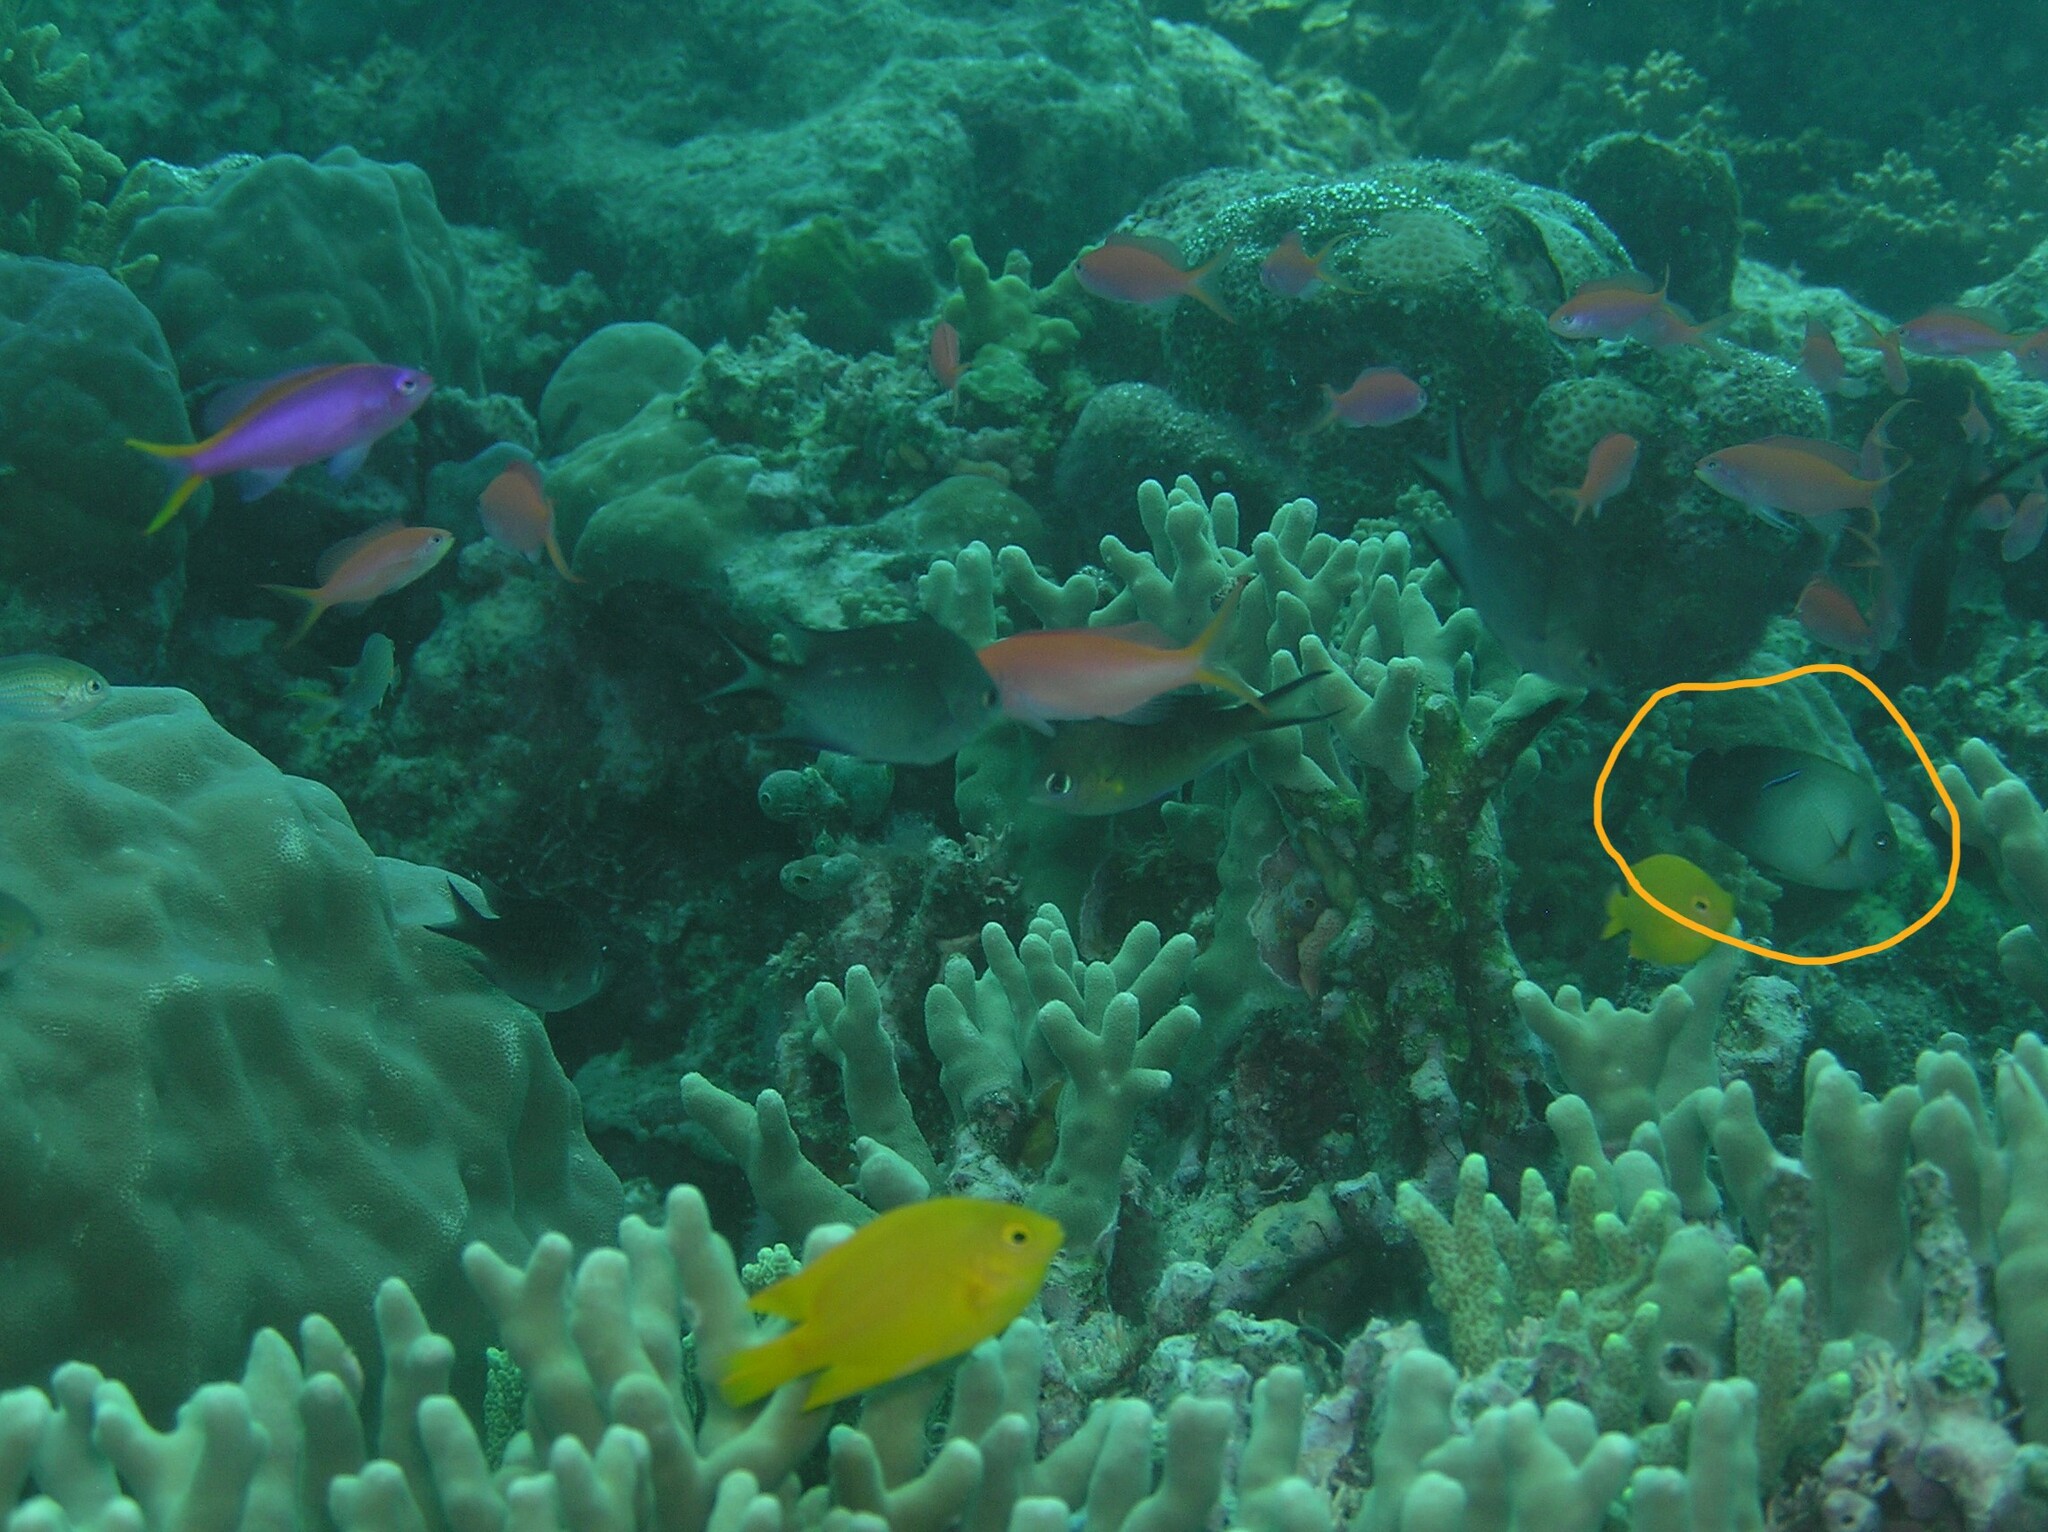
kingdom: Animalia
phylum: Chordata
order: Perciformes
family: Pomacanthidae
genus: Centropyge
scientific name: Centropyge vrolikii
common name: Pearlscale angelfish
